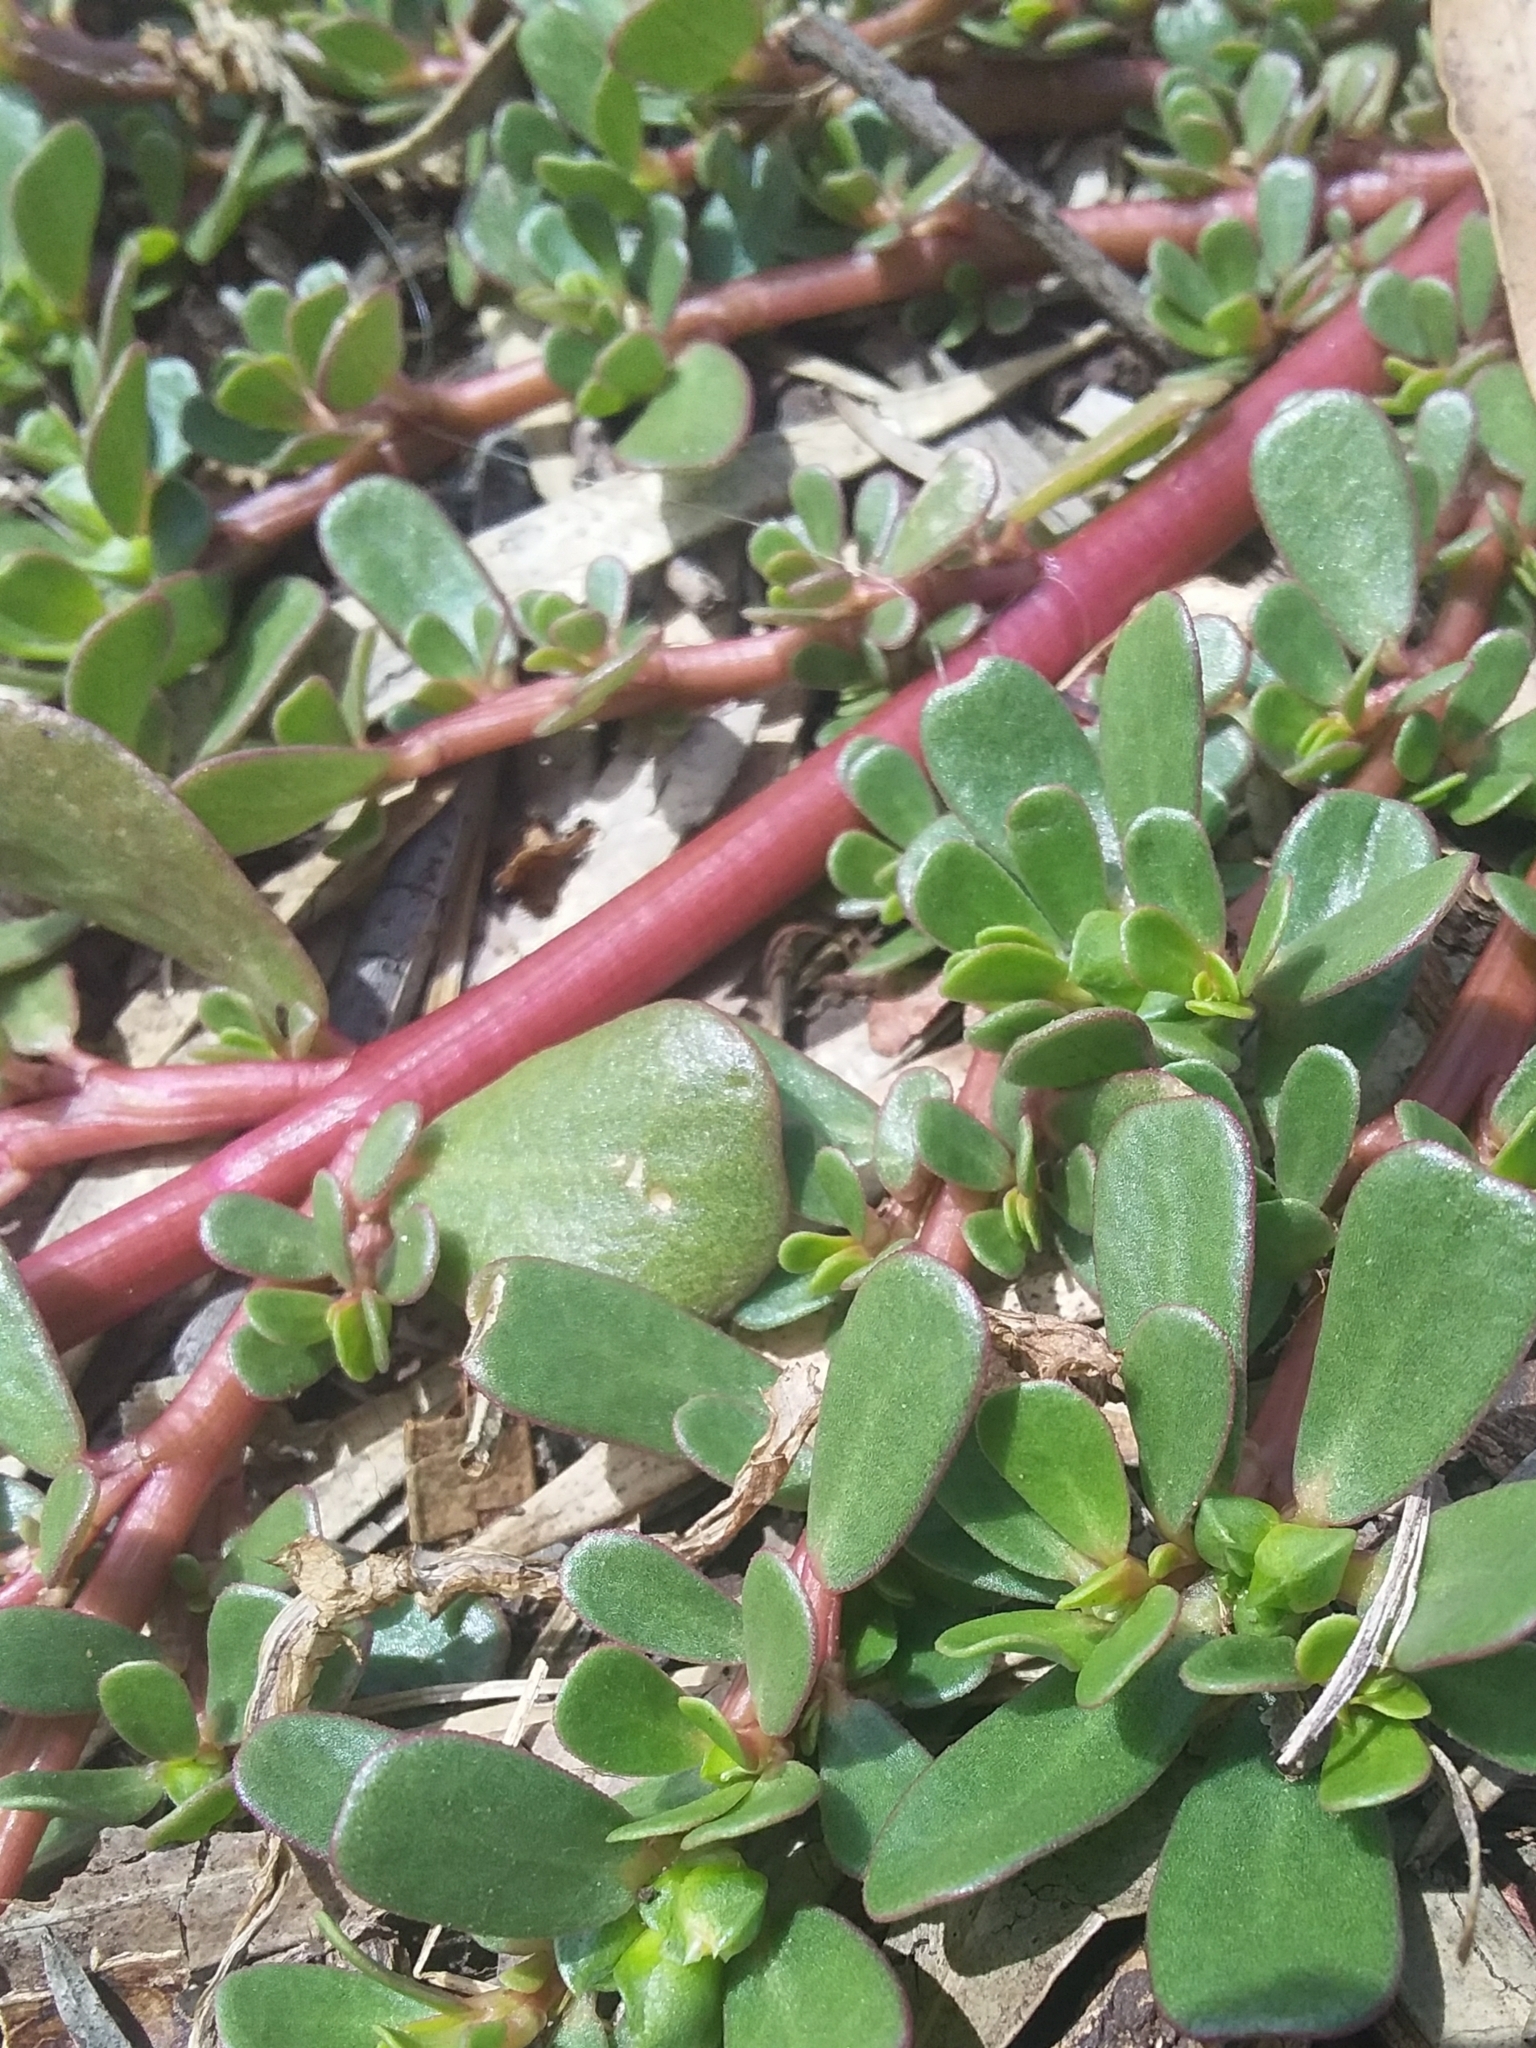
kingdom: Plantae
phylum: Tracheophyta
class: Magnoliopsida
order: Caryophyllales
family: Portulacaceae
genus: Portulaca
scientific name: Portulaca oleracea
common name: Common purslane
